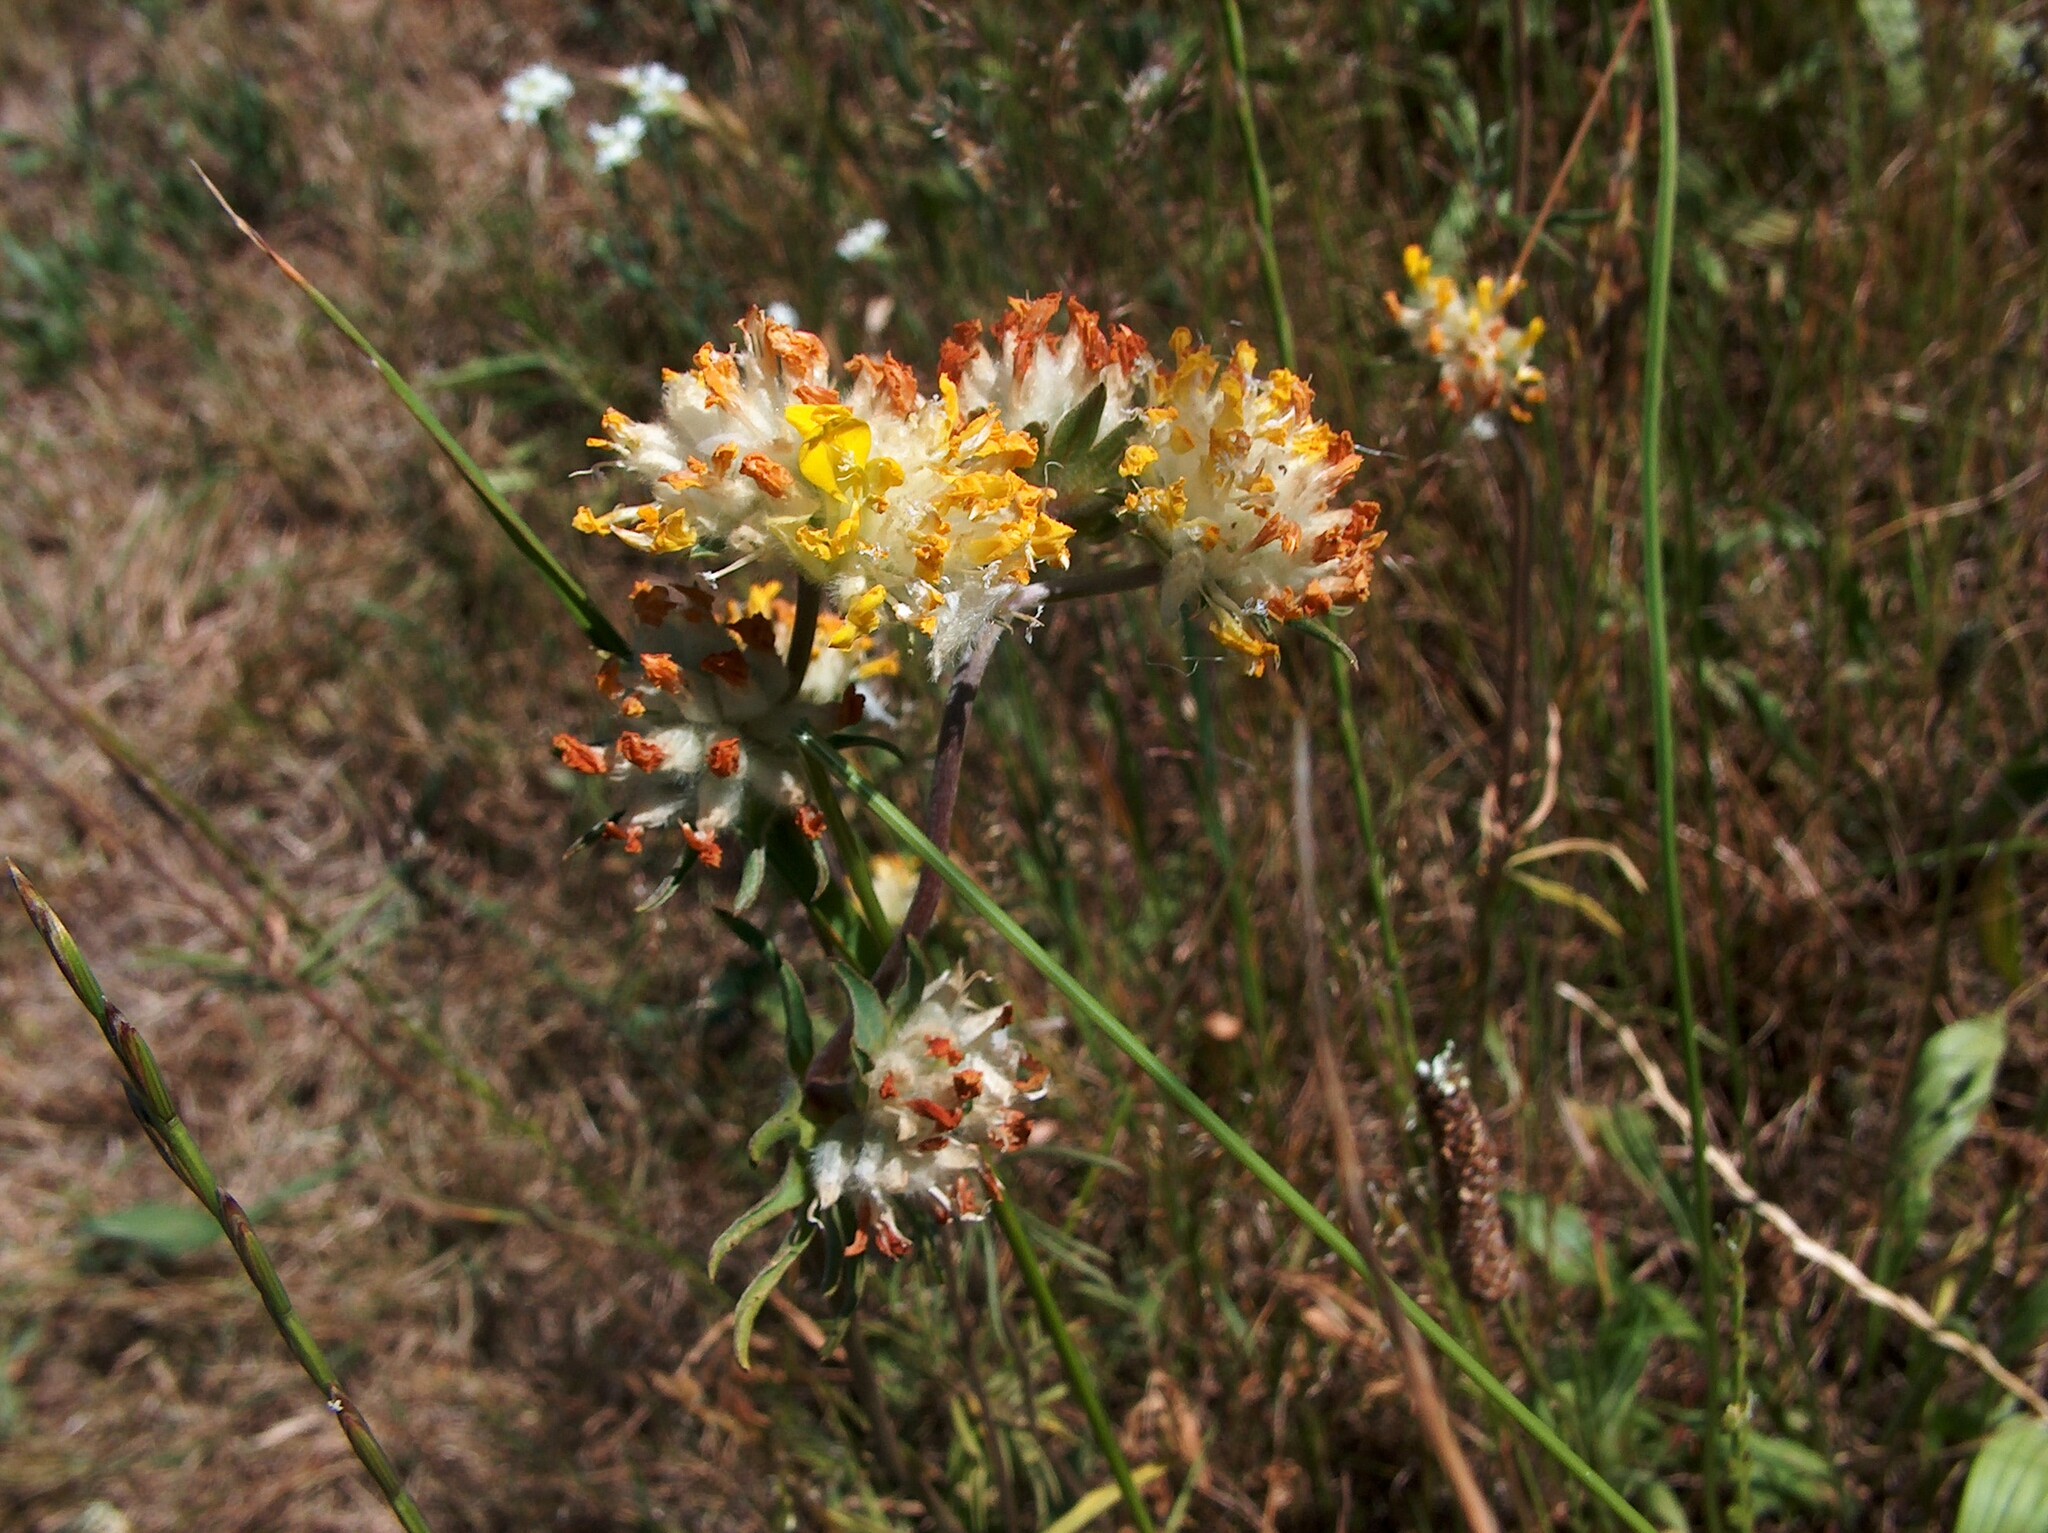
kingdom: Plantae
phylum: Tracheophyta
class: Magnoliopsida
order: Fabales
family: Fabaceae
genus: Anthyllis
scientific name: Anthyllis vulneraria
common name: Kidney vetch
